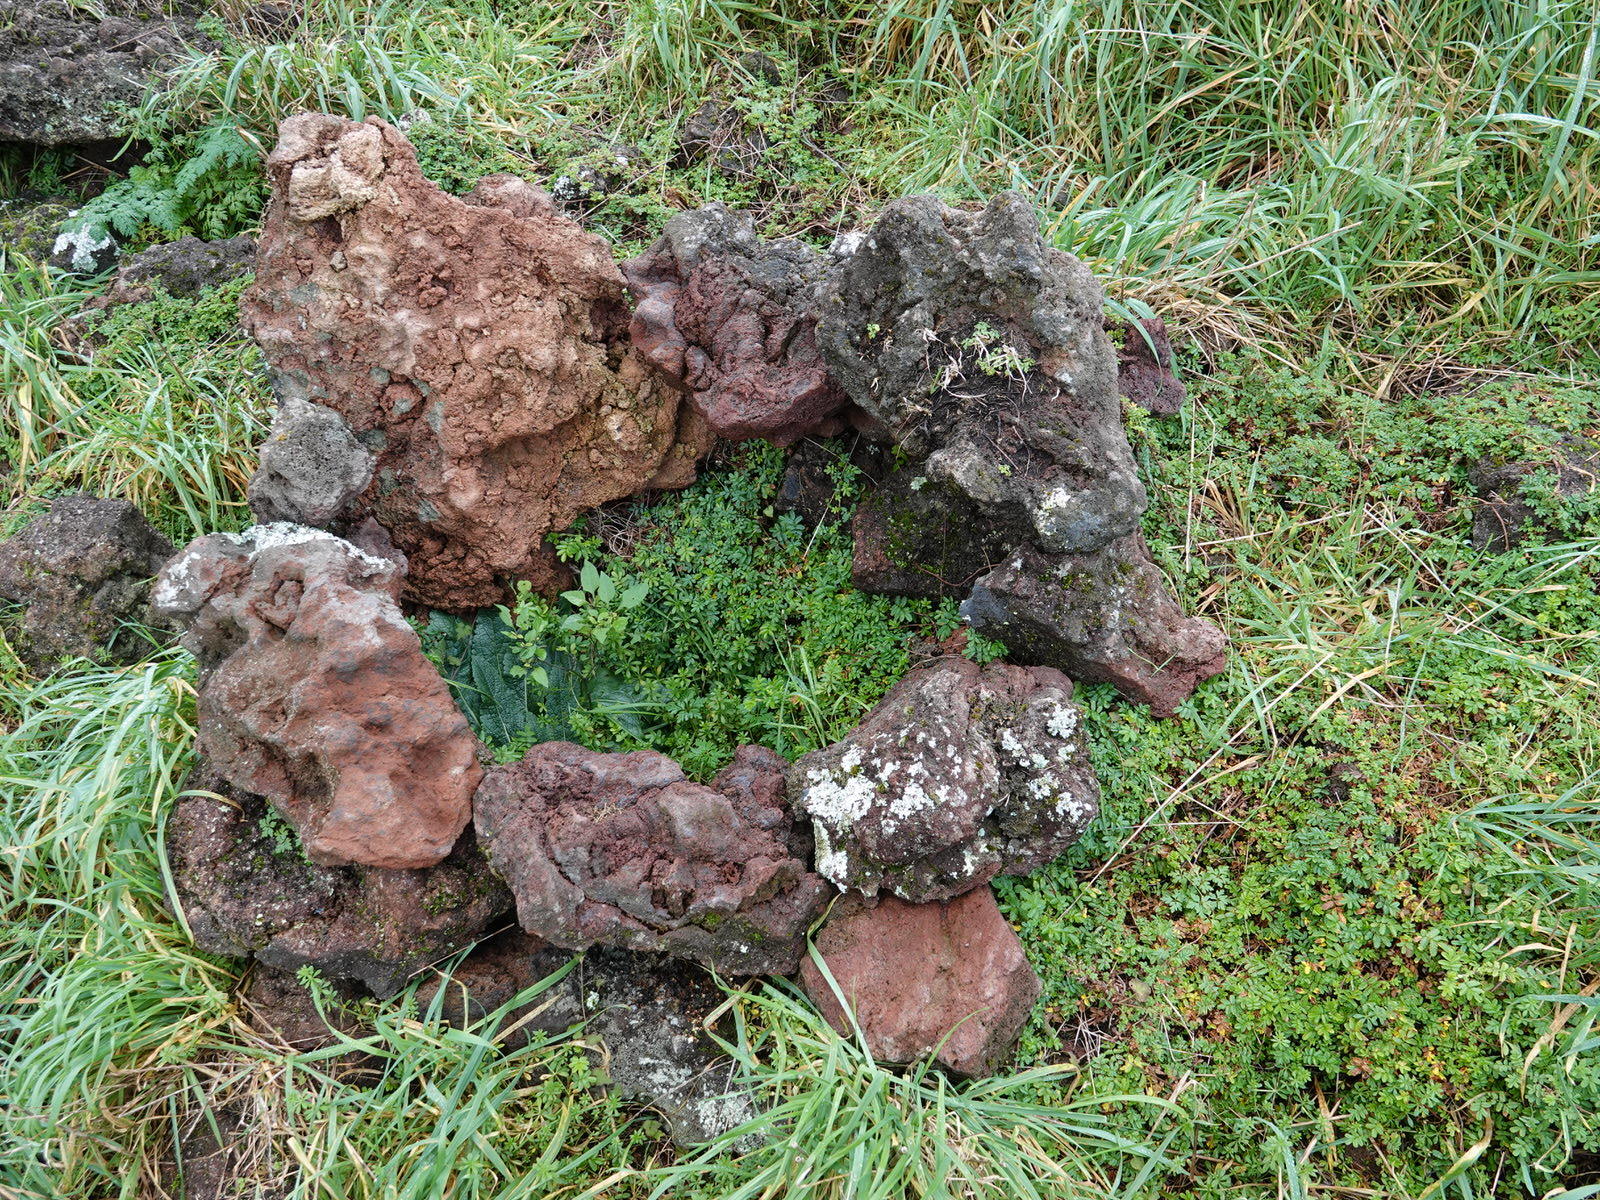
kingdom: Plantae
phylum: Tracheophyta
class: Magnoliopsida
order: Rosales
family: Rosaceae
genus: Acaena
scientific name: Acaena novae-zelandiae
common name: Pirri-pirri-bur
